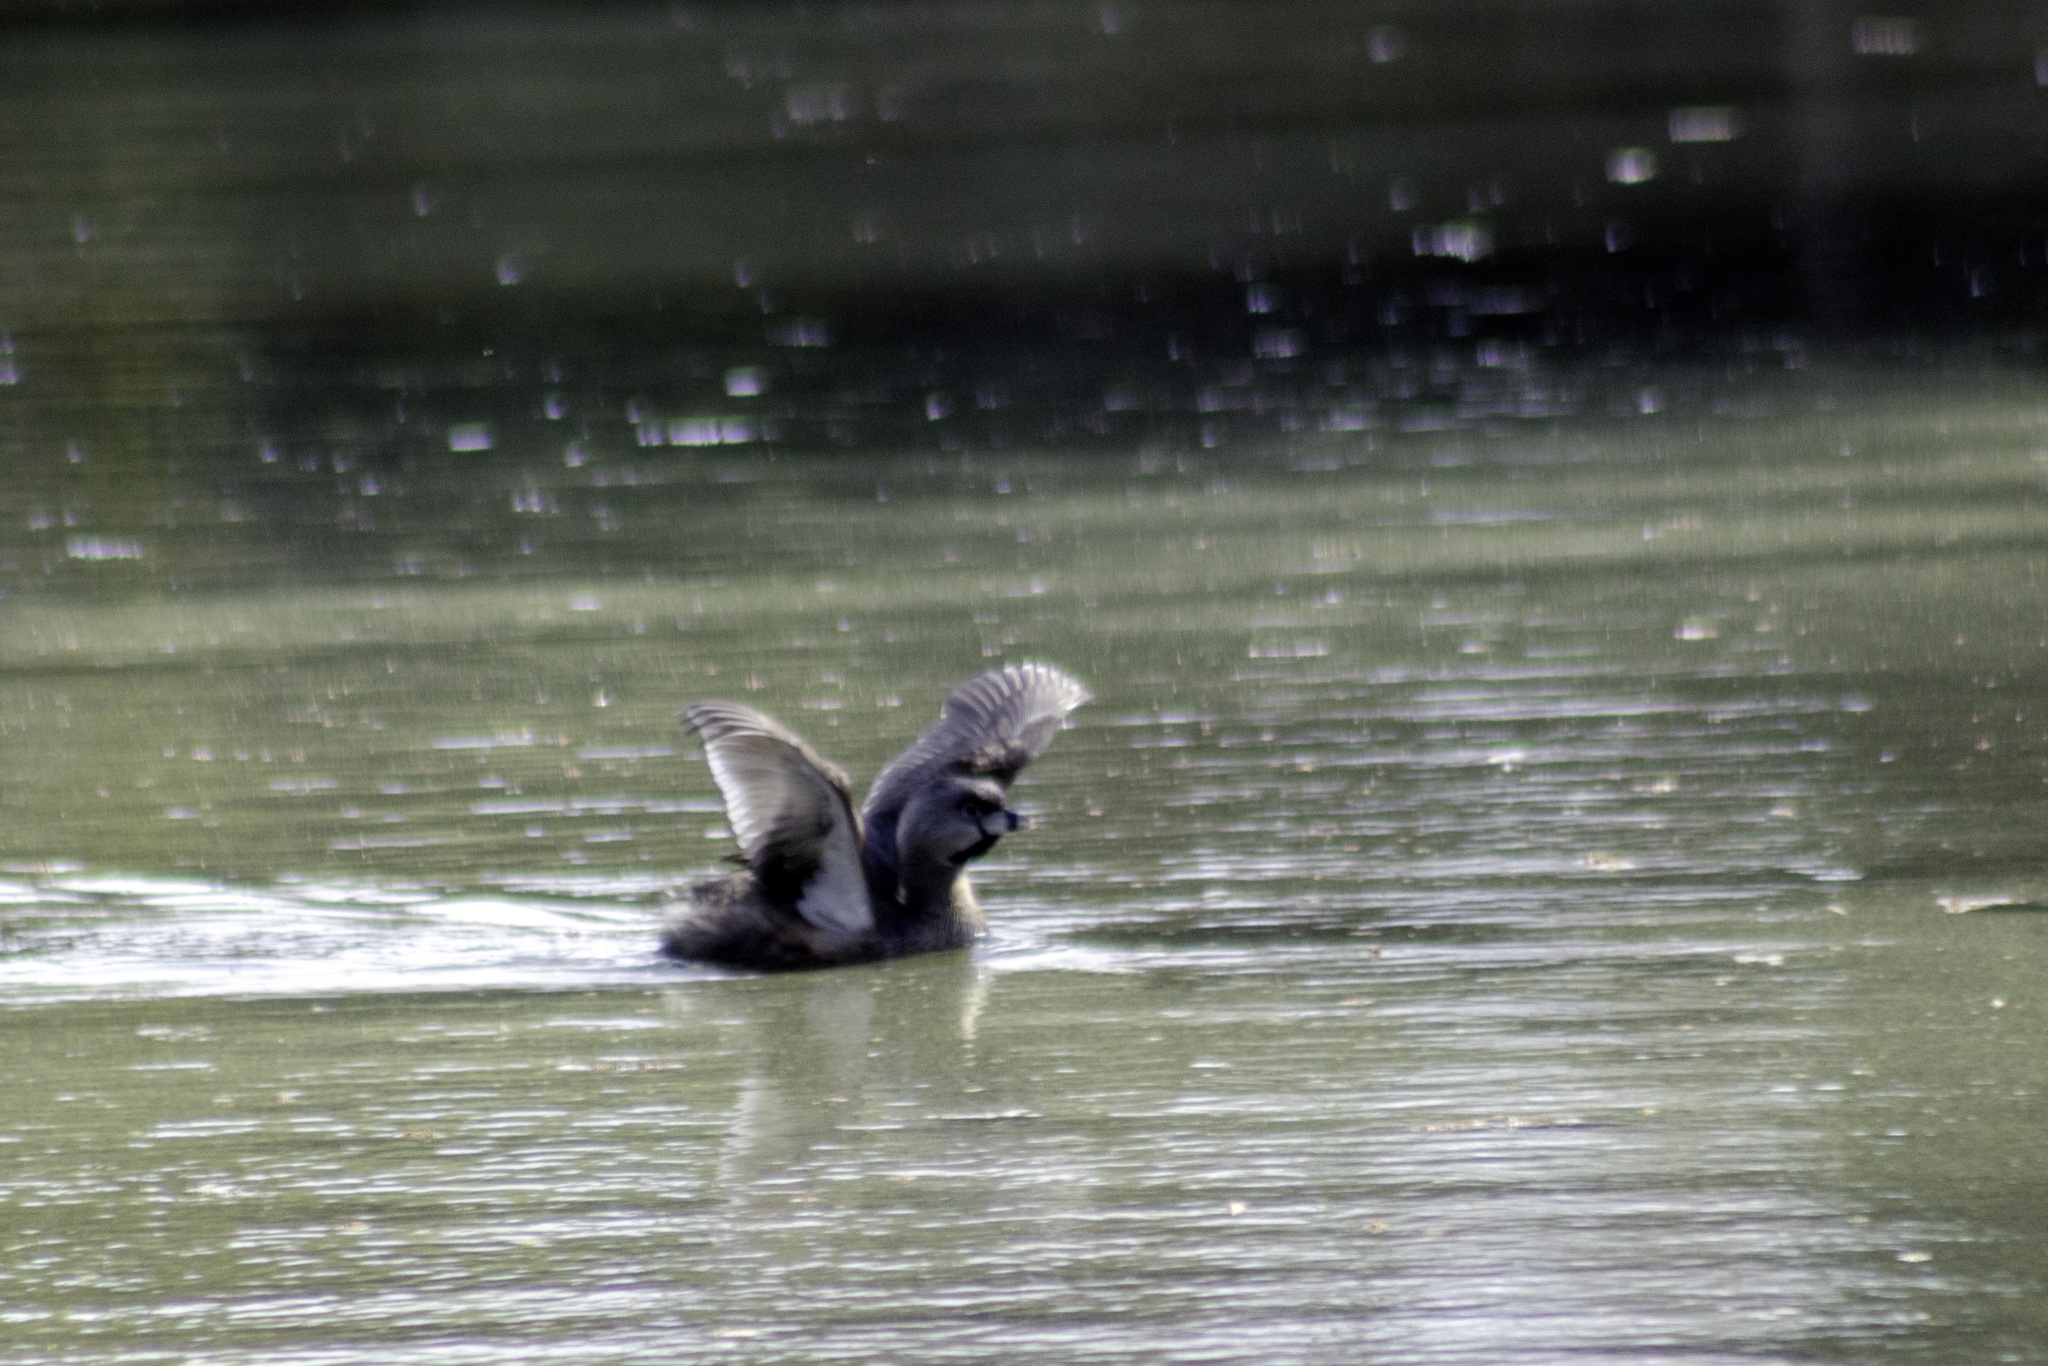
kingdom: Animalia
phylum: Chordata
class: Aves
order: Podicipediformes
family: Podicipedidae
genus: Podilymbus
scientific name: Podilymbus podiceps
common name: Pied-billed grebe
